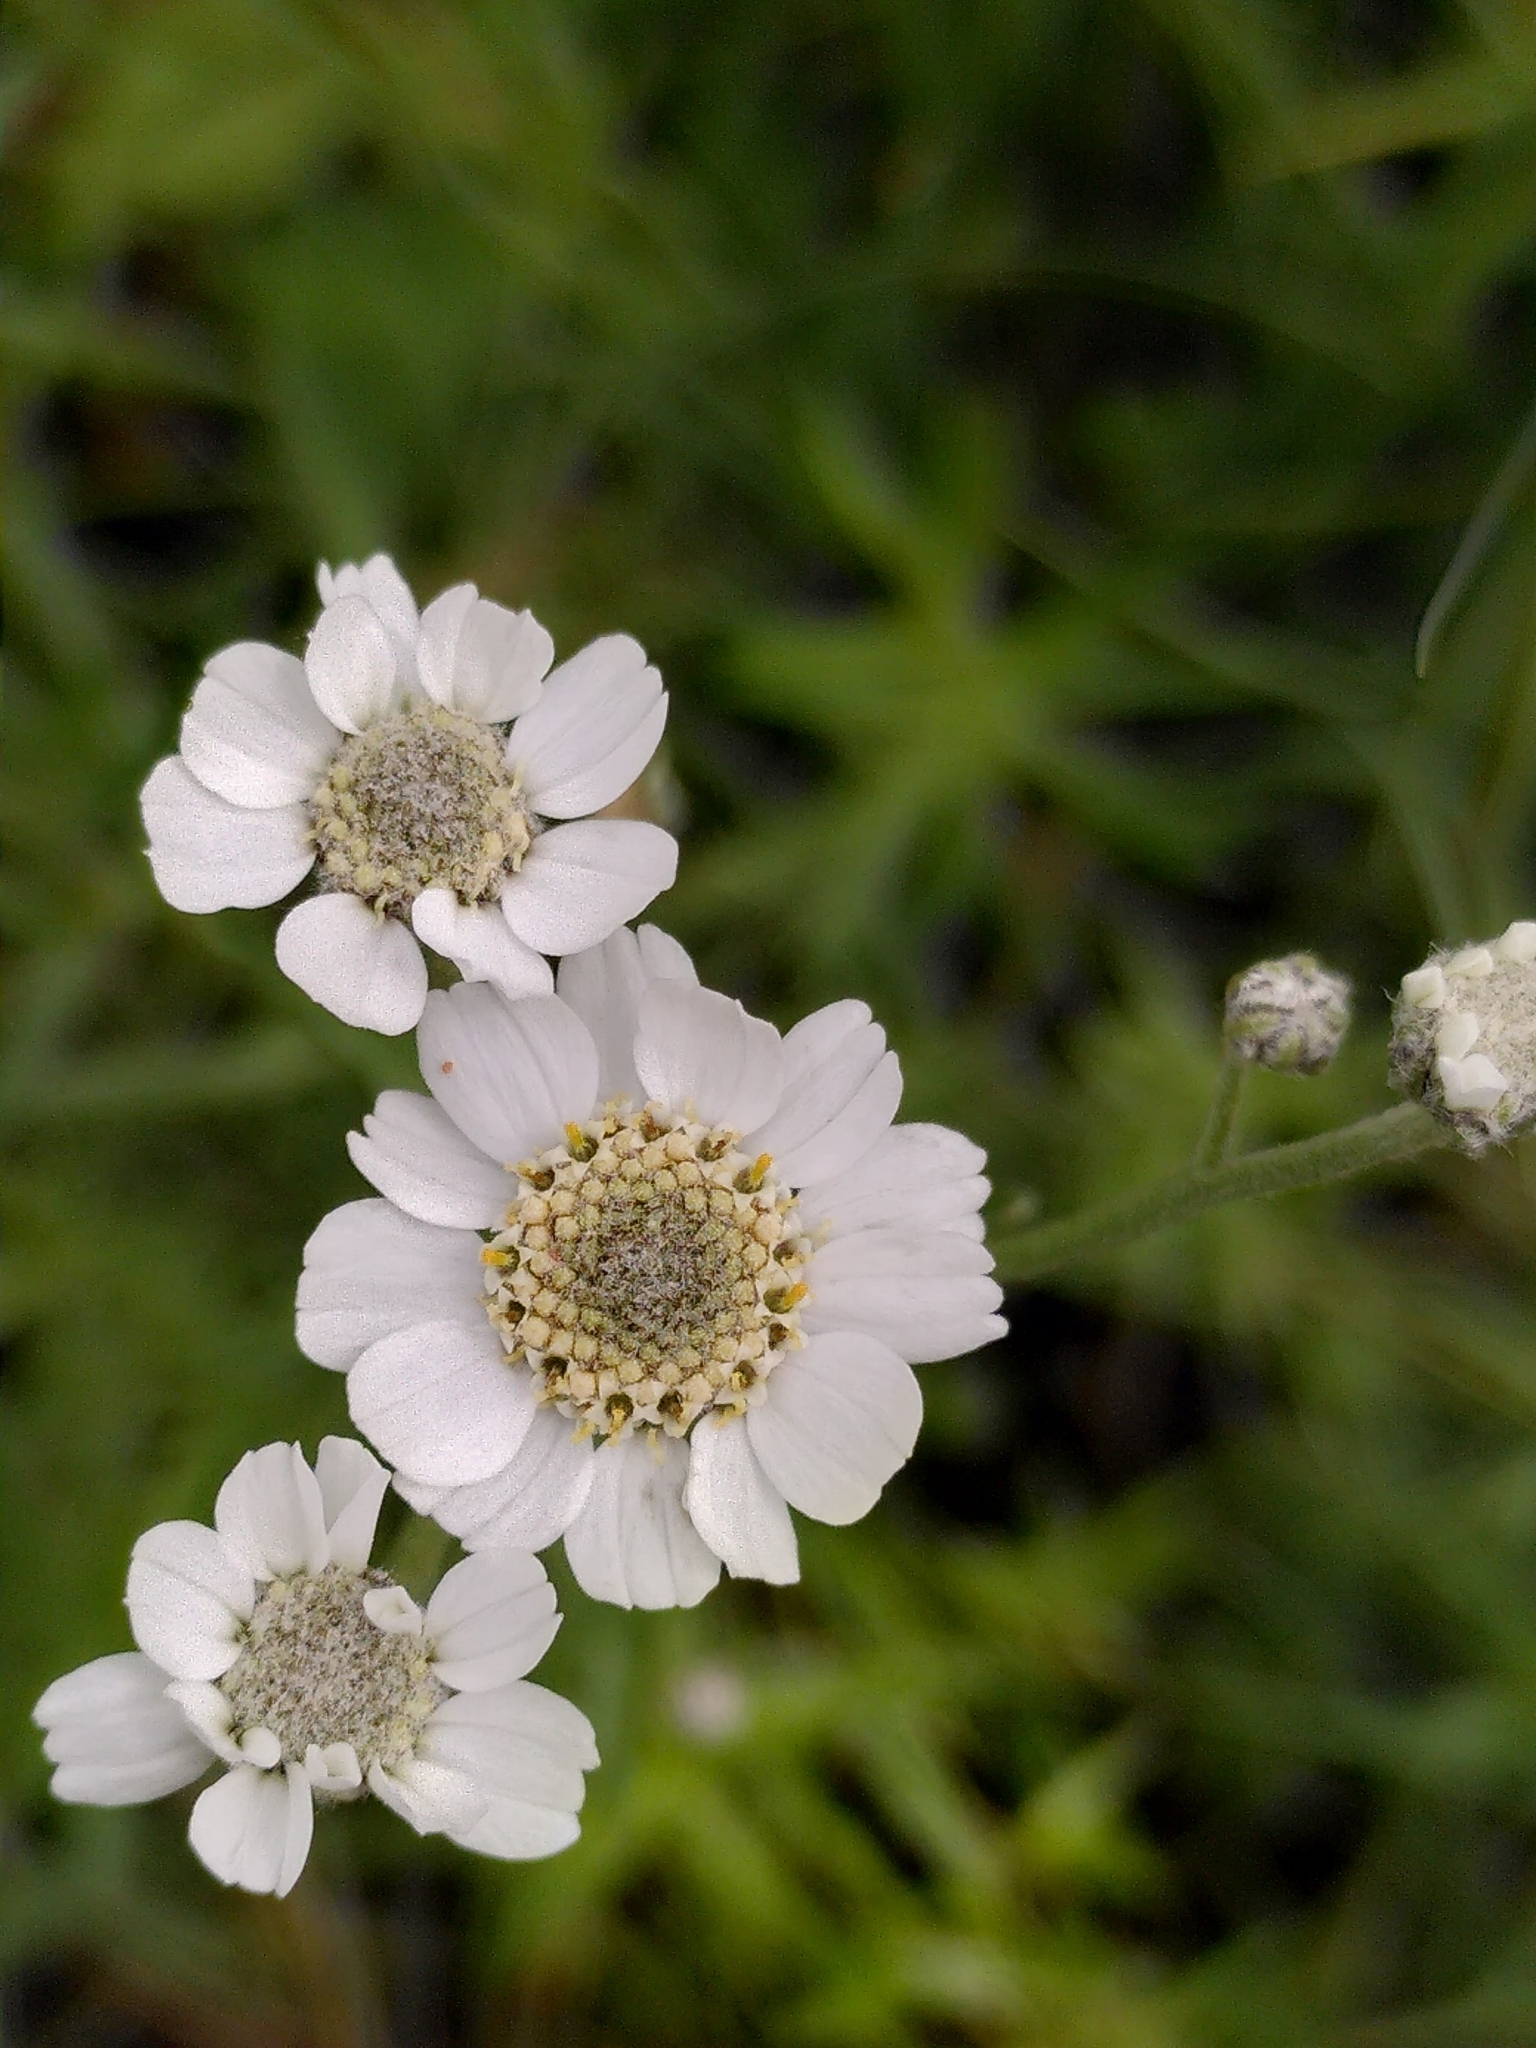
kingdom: Plantae
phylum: Tracheophyta
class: Magnoliopsida
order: Asterales
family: Asteraceae
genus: Achillea
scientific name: Achillea ptarmica
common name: Sneezeweed
